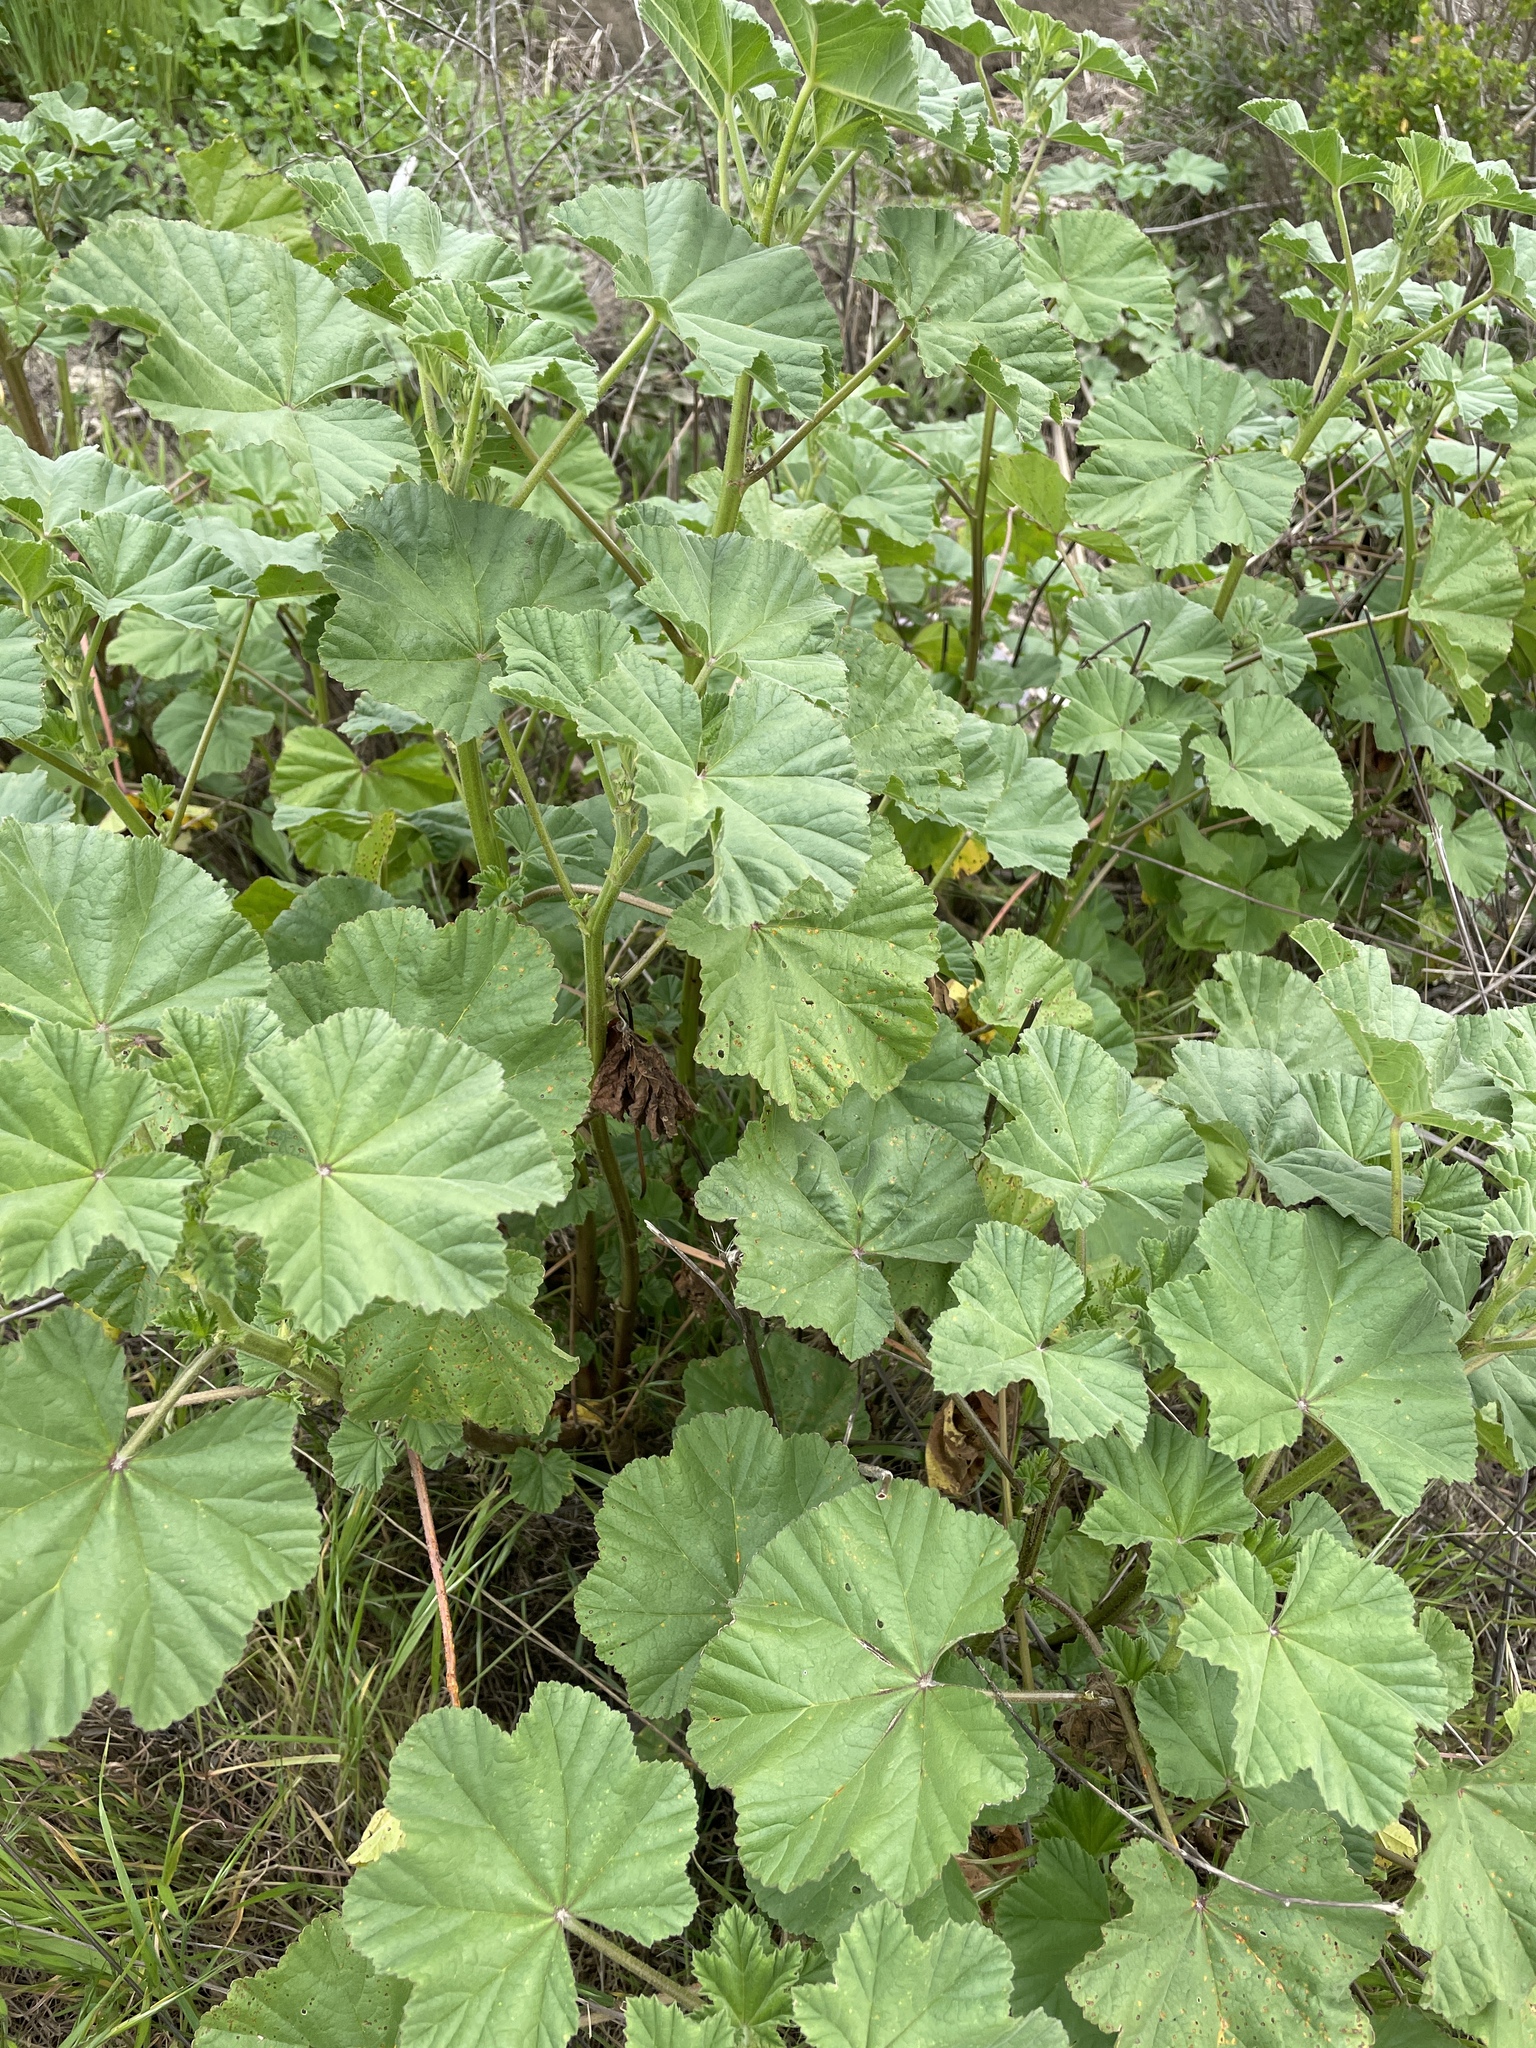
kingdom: Plantae
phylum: Tracheophyta
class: Magnoliopsida
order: Malvales
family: Malvaceae
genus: Malva
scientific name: Malva
